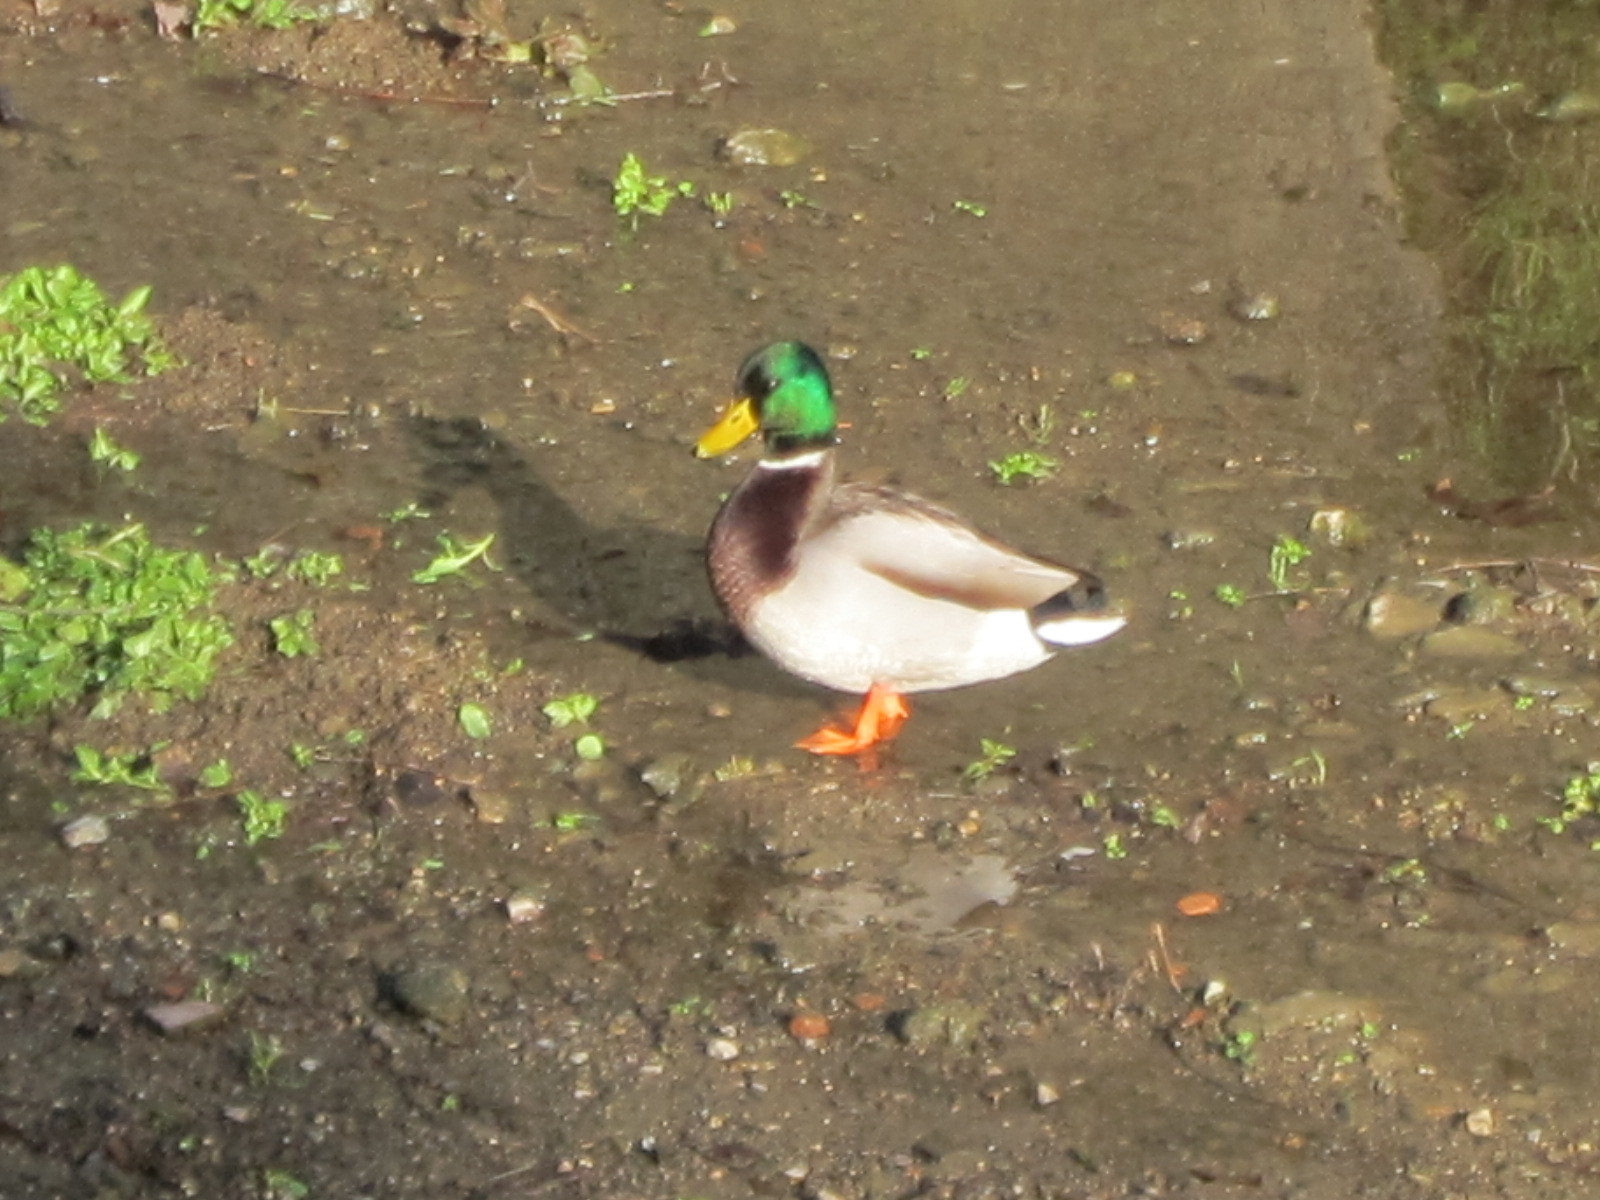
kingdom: Animalia
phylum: Chordata
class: Aves
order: Anseriformes
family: Anatidae
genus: Anas
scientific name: Anas platyrhynchos
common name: Mallard
